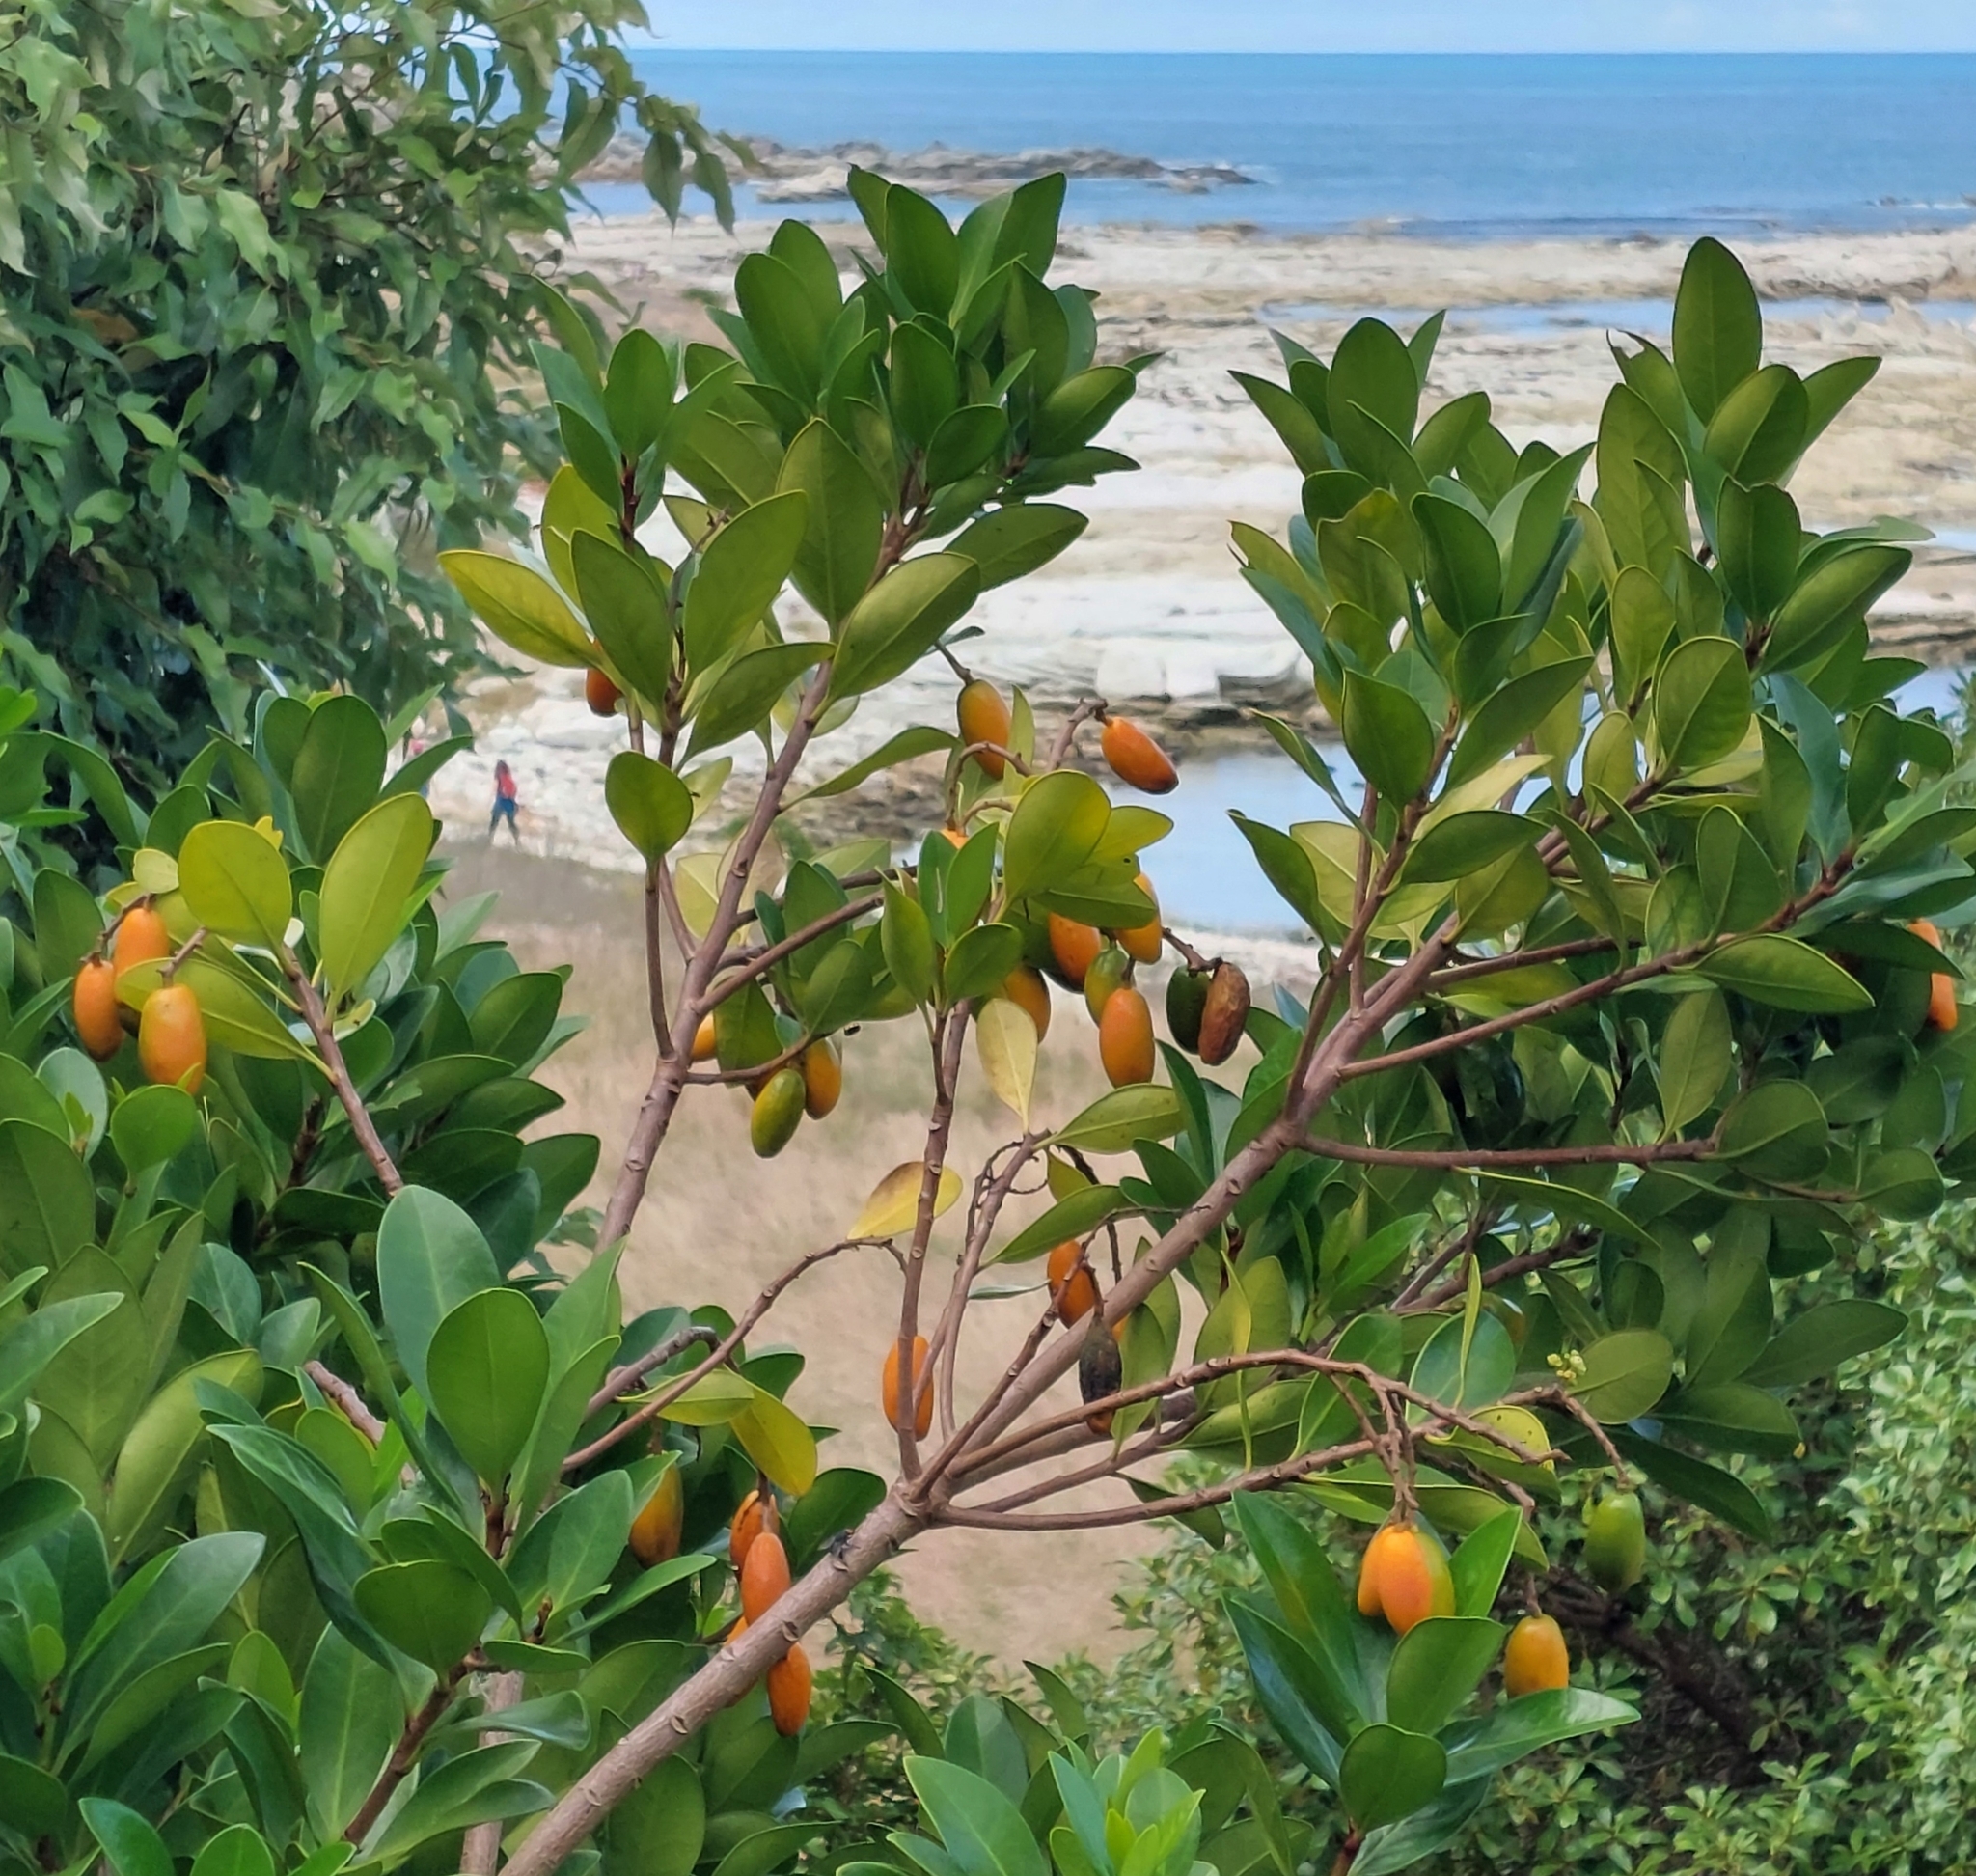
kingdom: Plantae
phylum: Tracheophyta
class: Magnoliopsida
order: Cucurbitales
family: Corynocarpaceae
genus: Corynocarpus
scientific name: Corynocarpus laevigatus
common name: New zealand laurel
